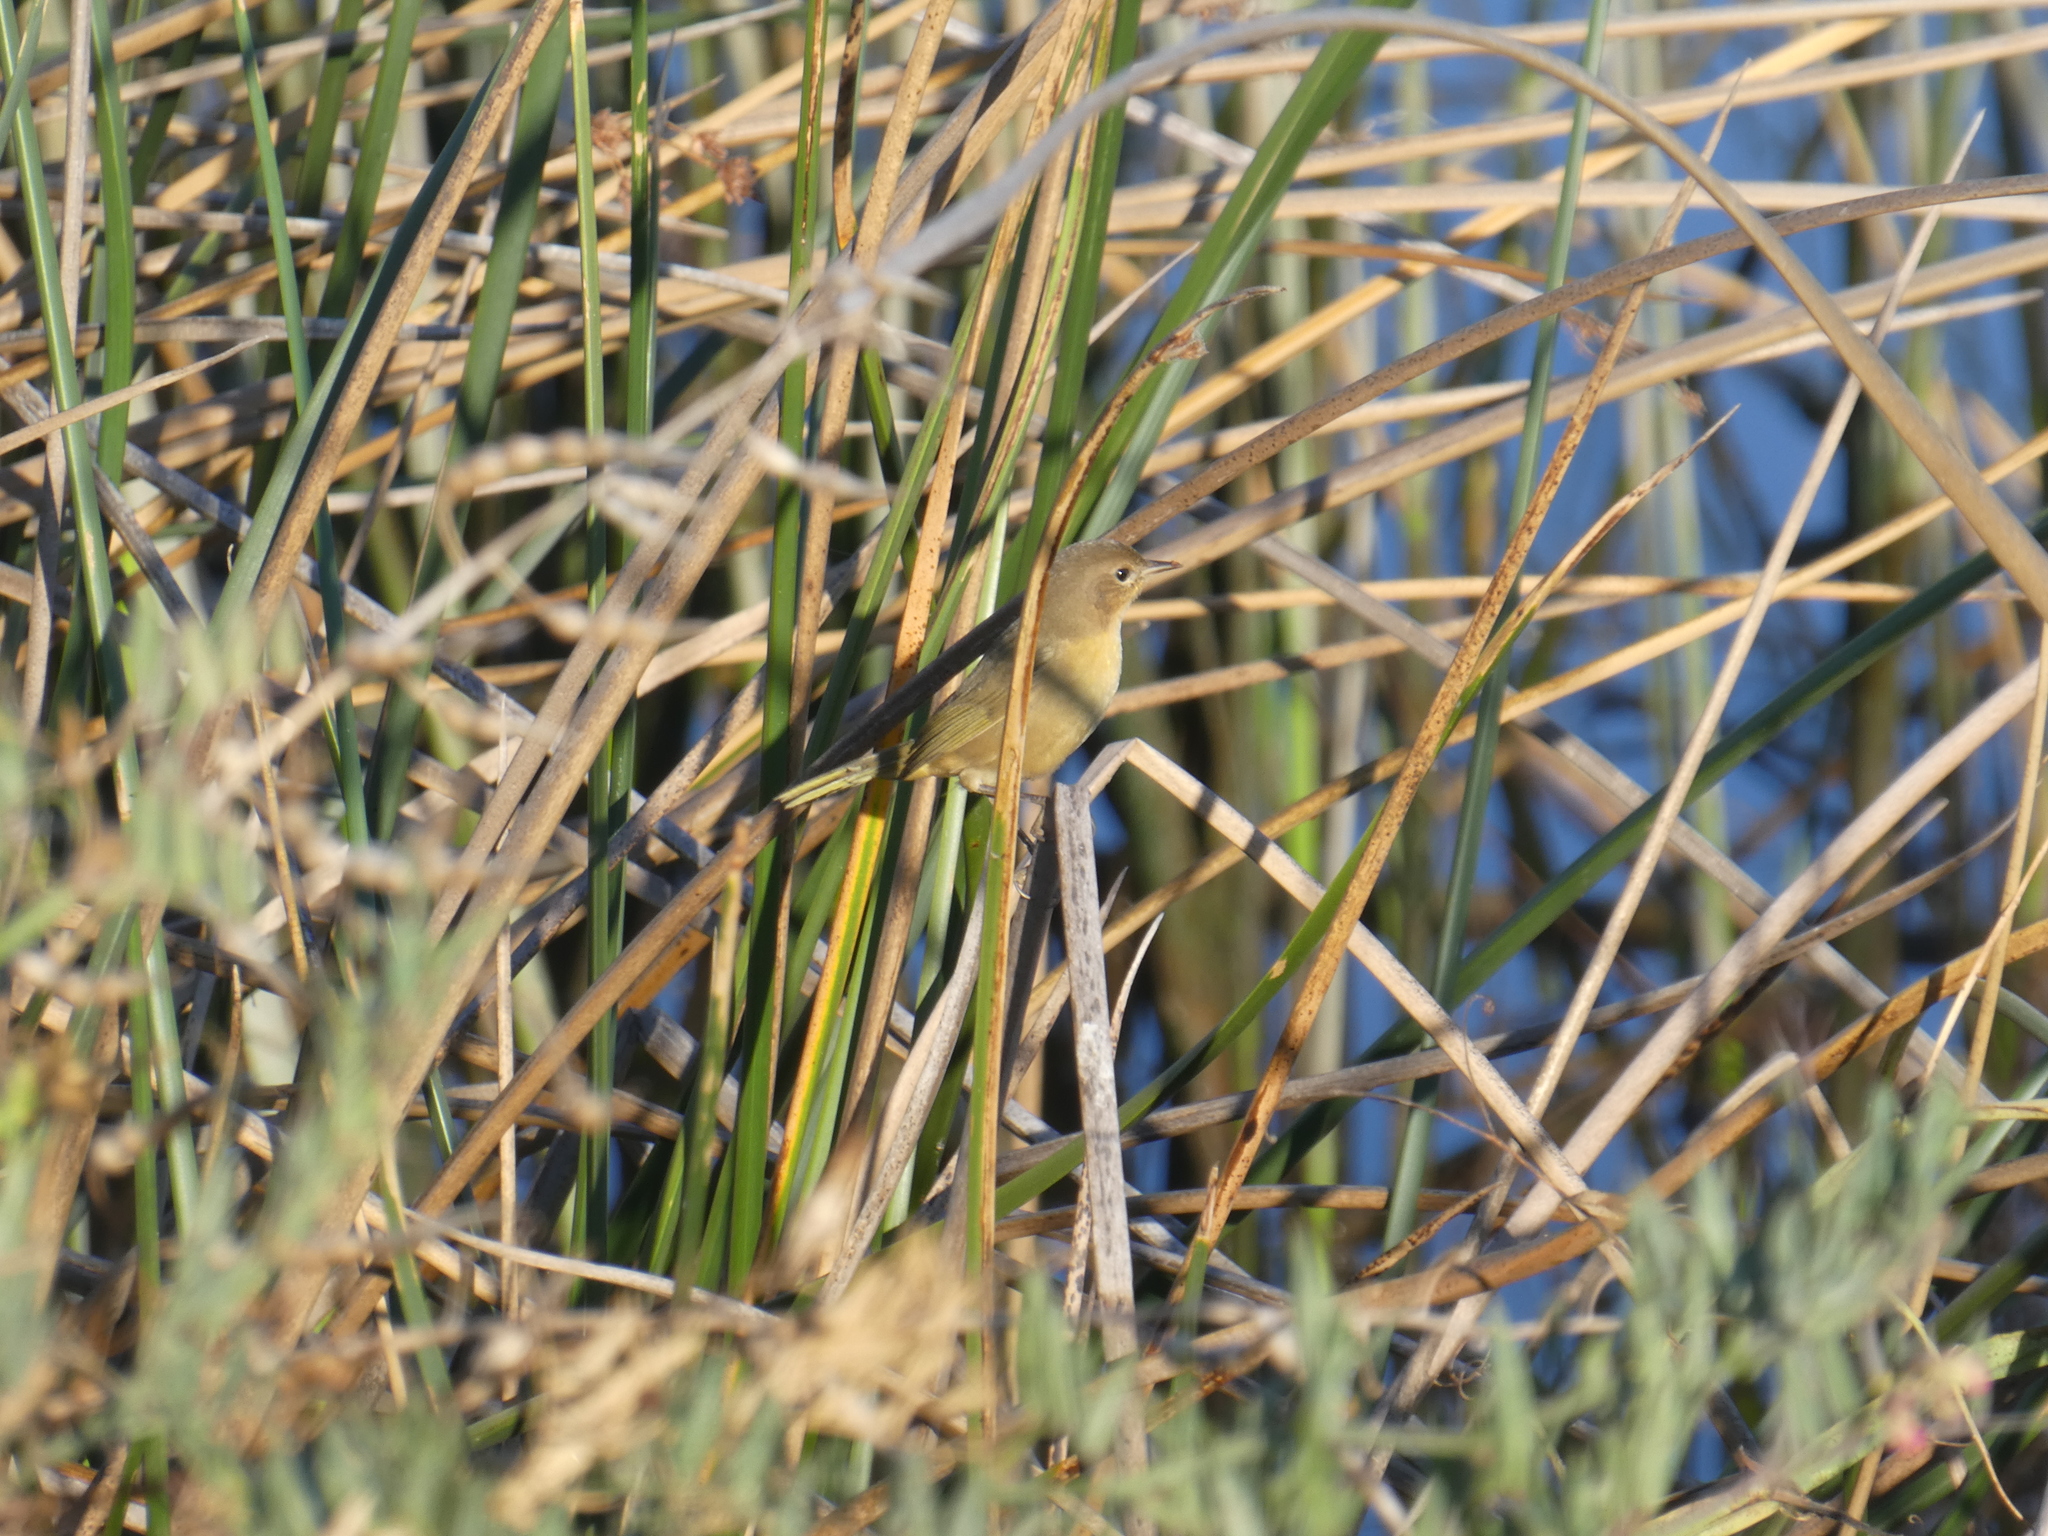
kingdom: Animalia
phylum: Chordata
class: Aves
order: Passeriformes
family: Parulidae
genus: Geothlypis
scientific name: Geothlypis trichas
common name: Common yellowthroat
